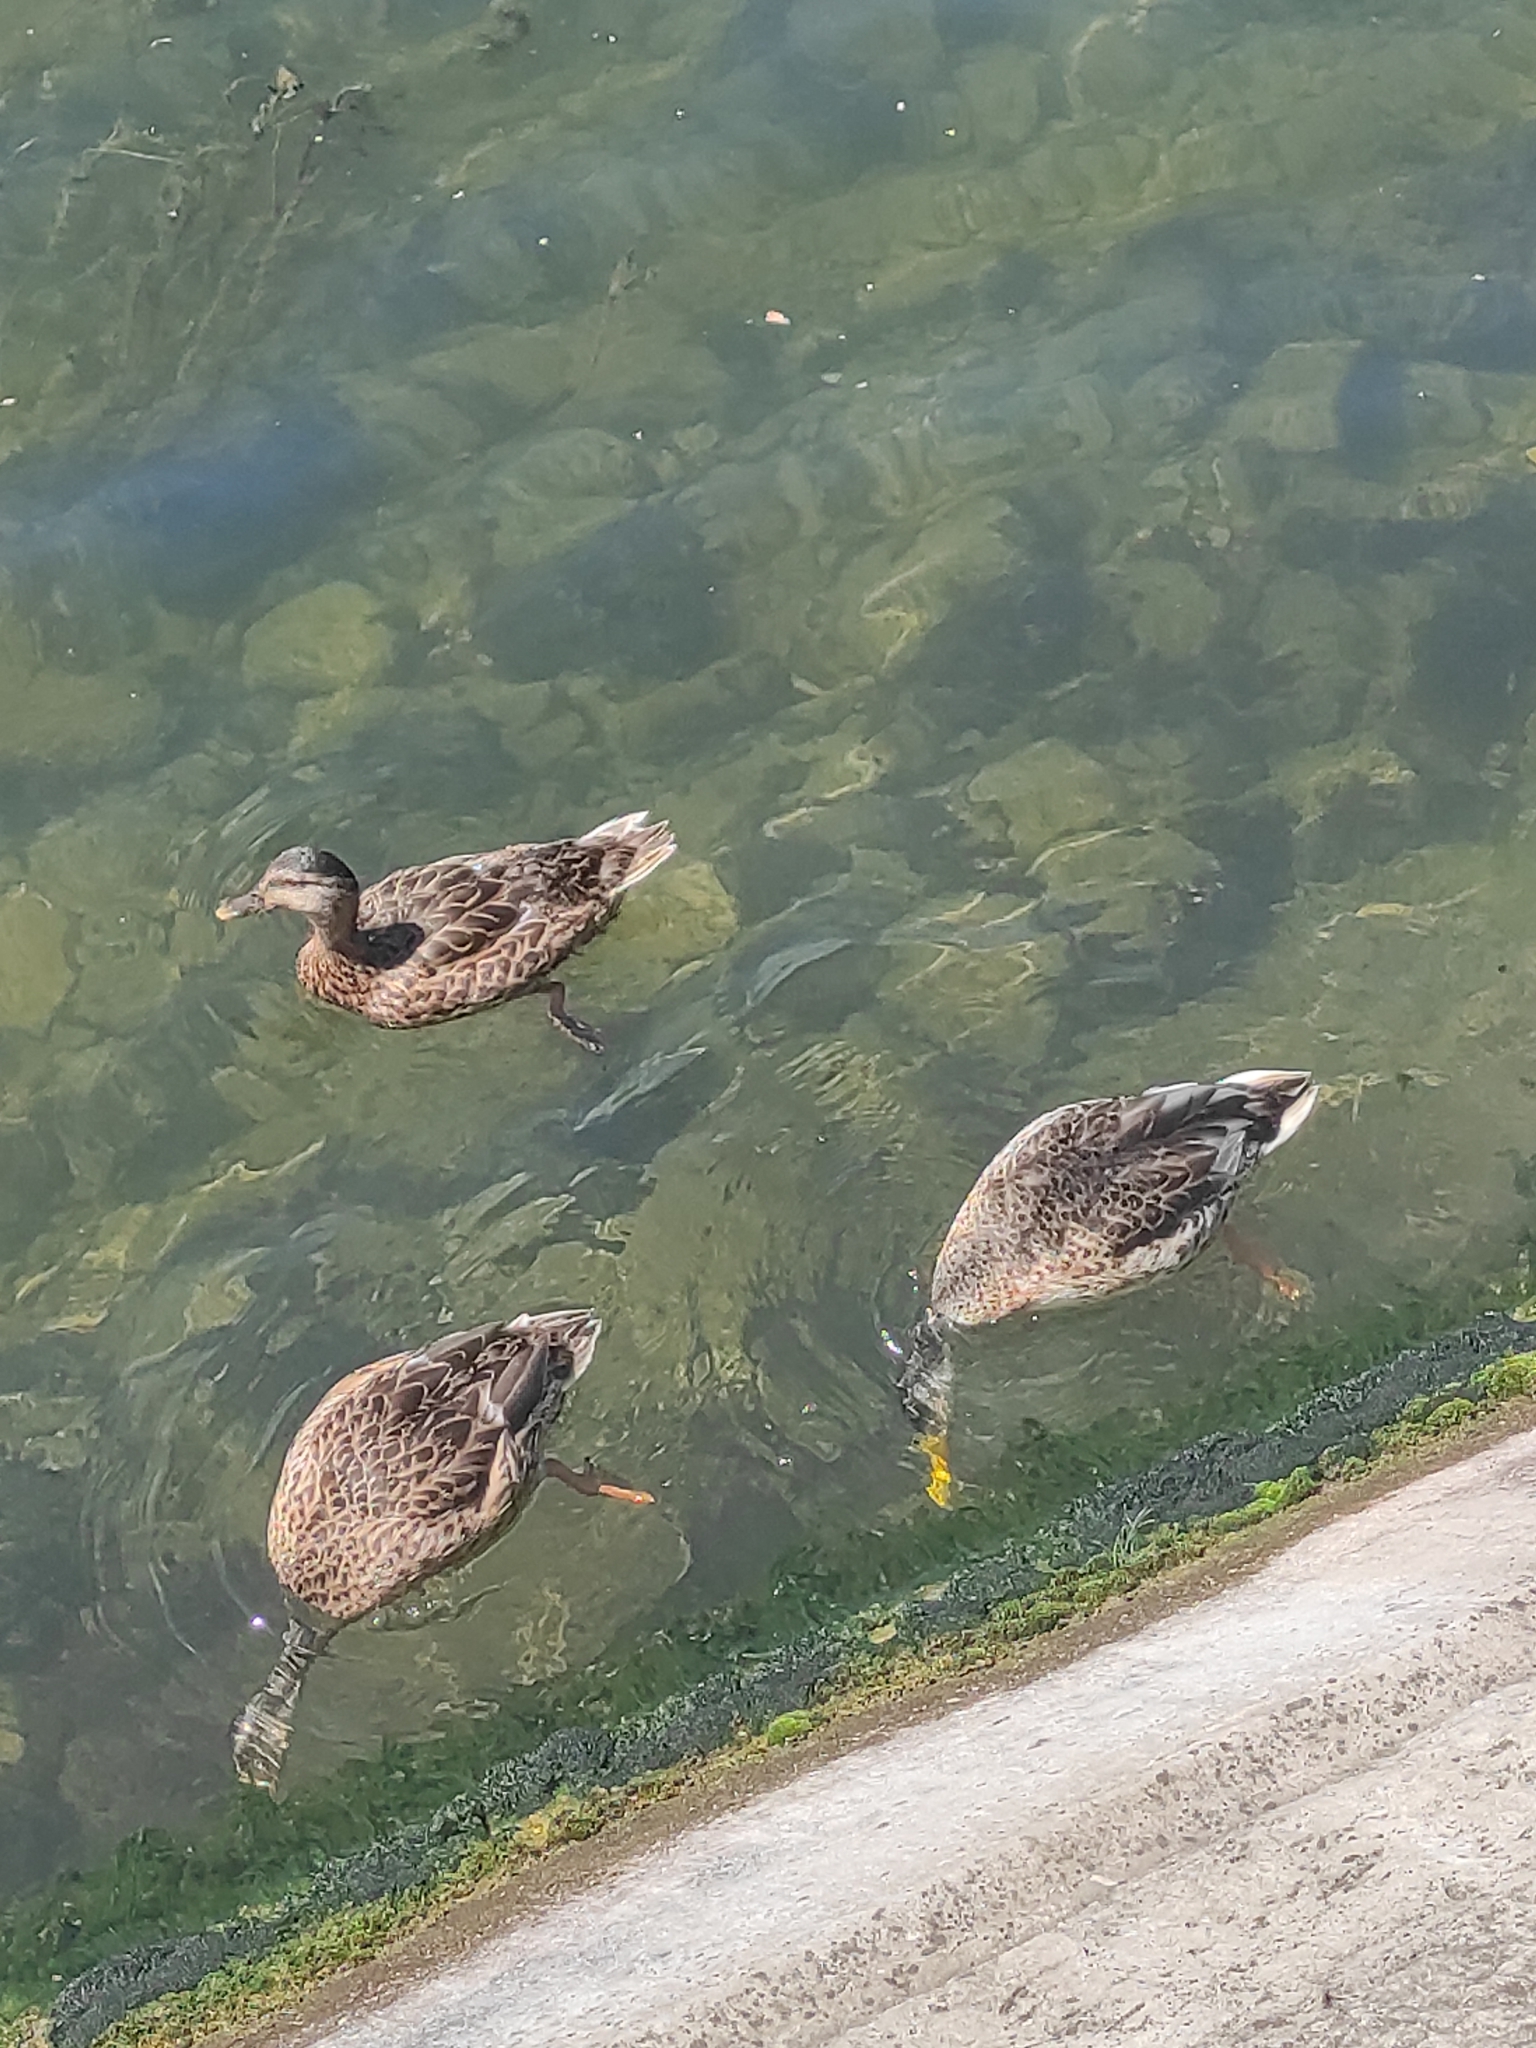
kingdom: Animalia
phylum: Chordata
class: Aves
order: Anseriformes
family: Anatidae
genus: Anas
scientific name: Anas platyrhynchos
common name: Mallard
